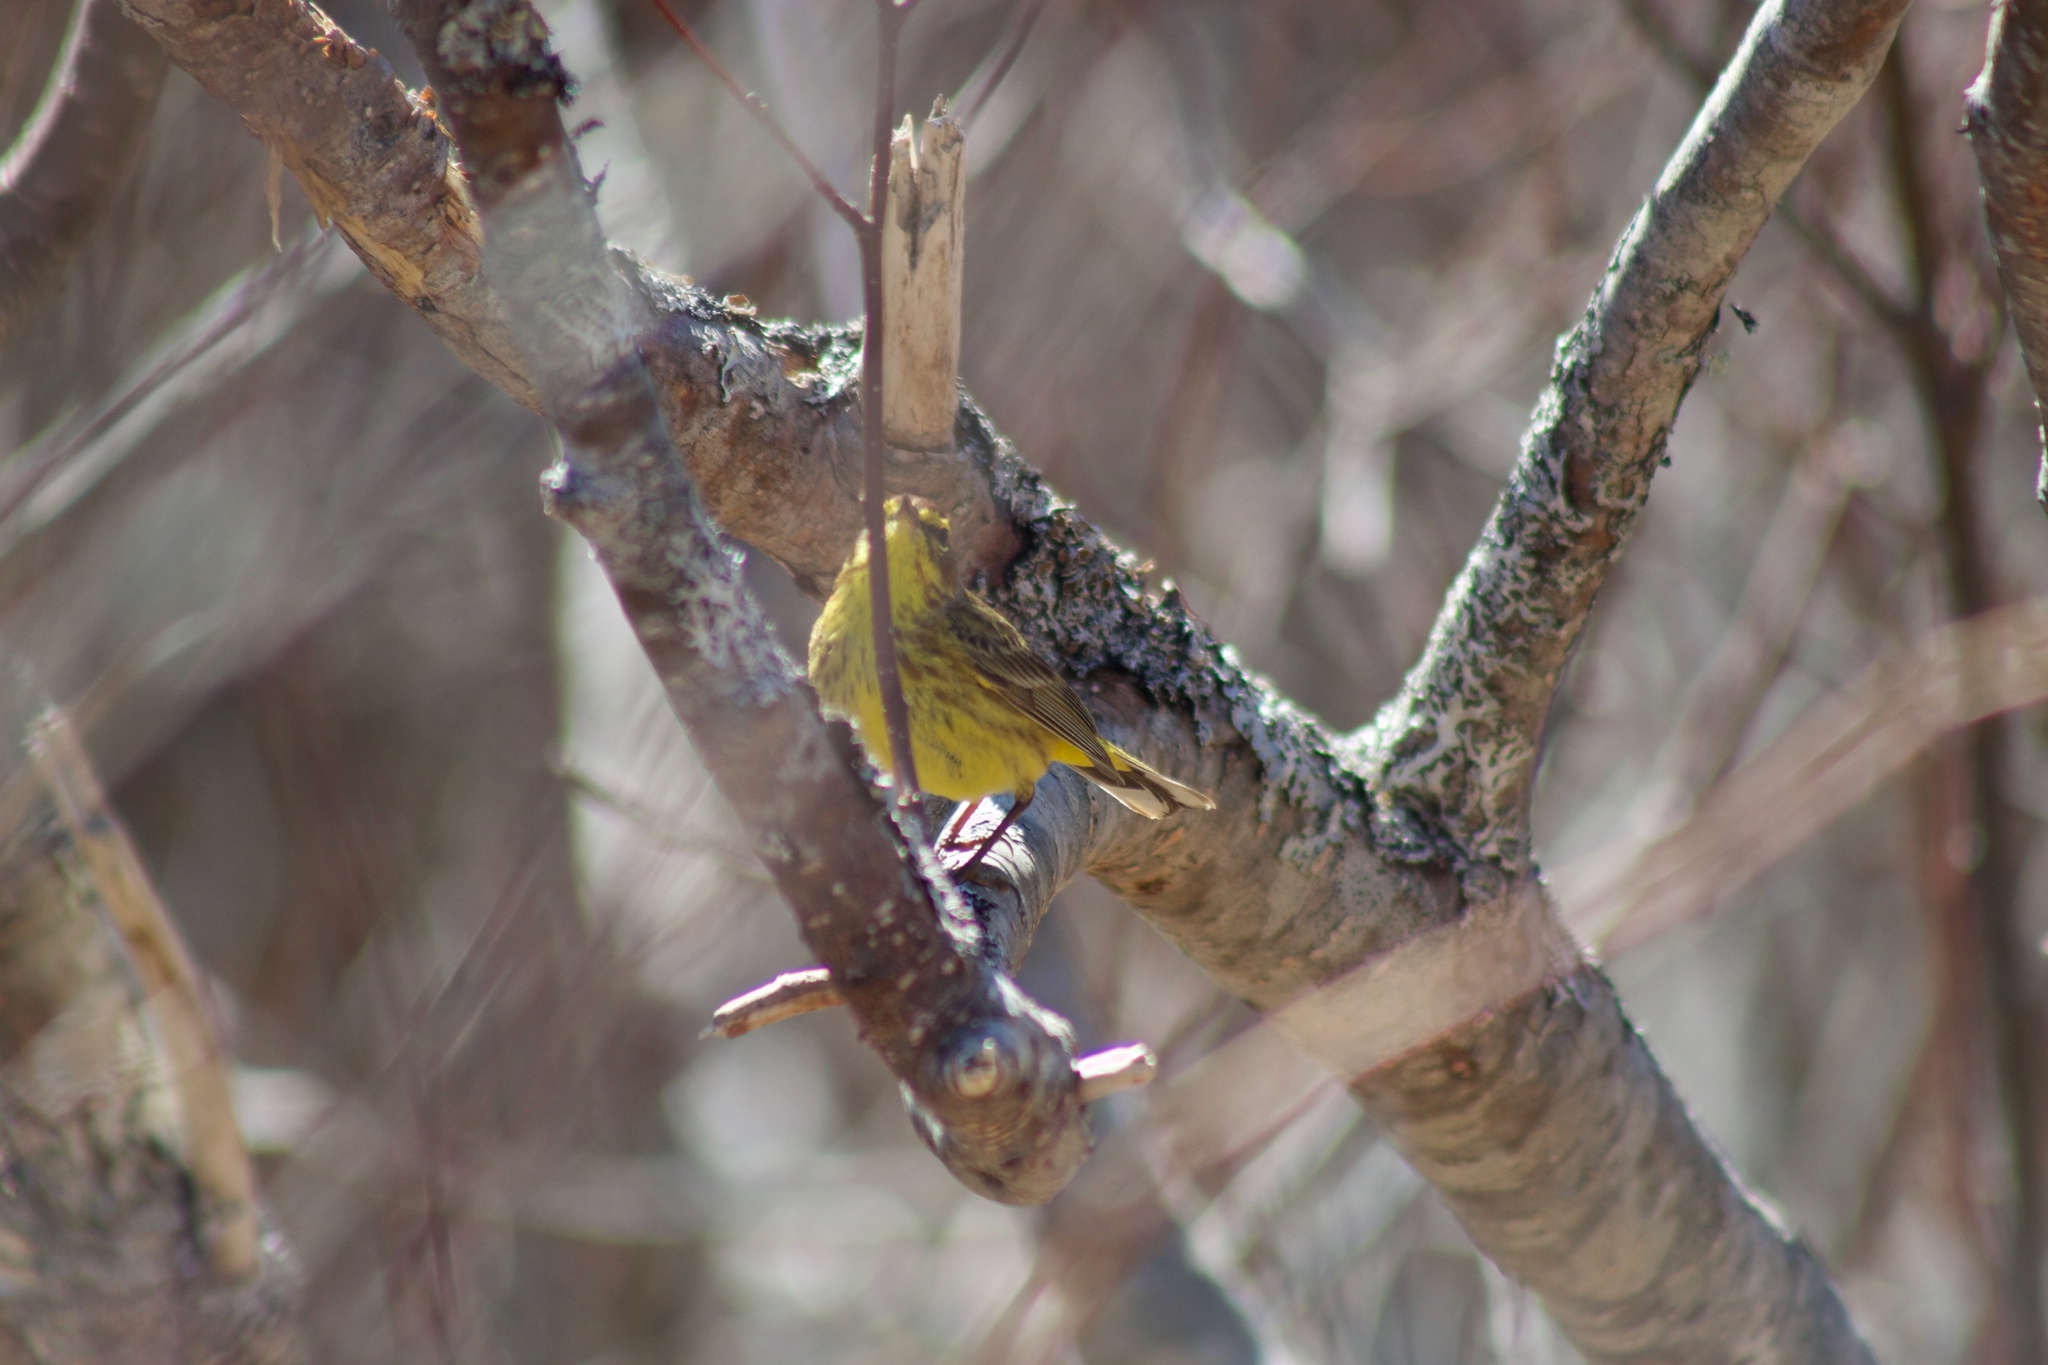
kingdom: Animalia
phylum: Chordata
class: Aves
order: Passeriformes
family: Parulidae
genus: Setophaga
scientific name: Setophaga palmarum
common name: Palm warbler
